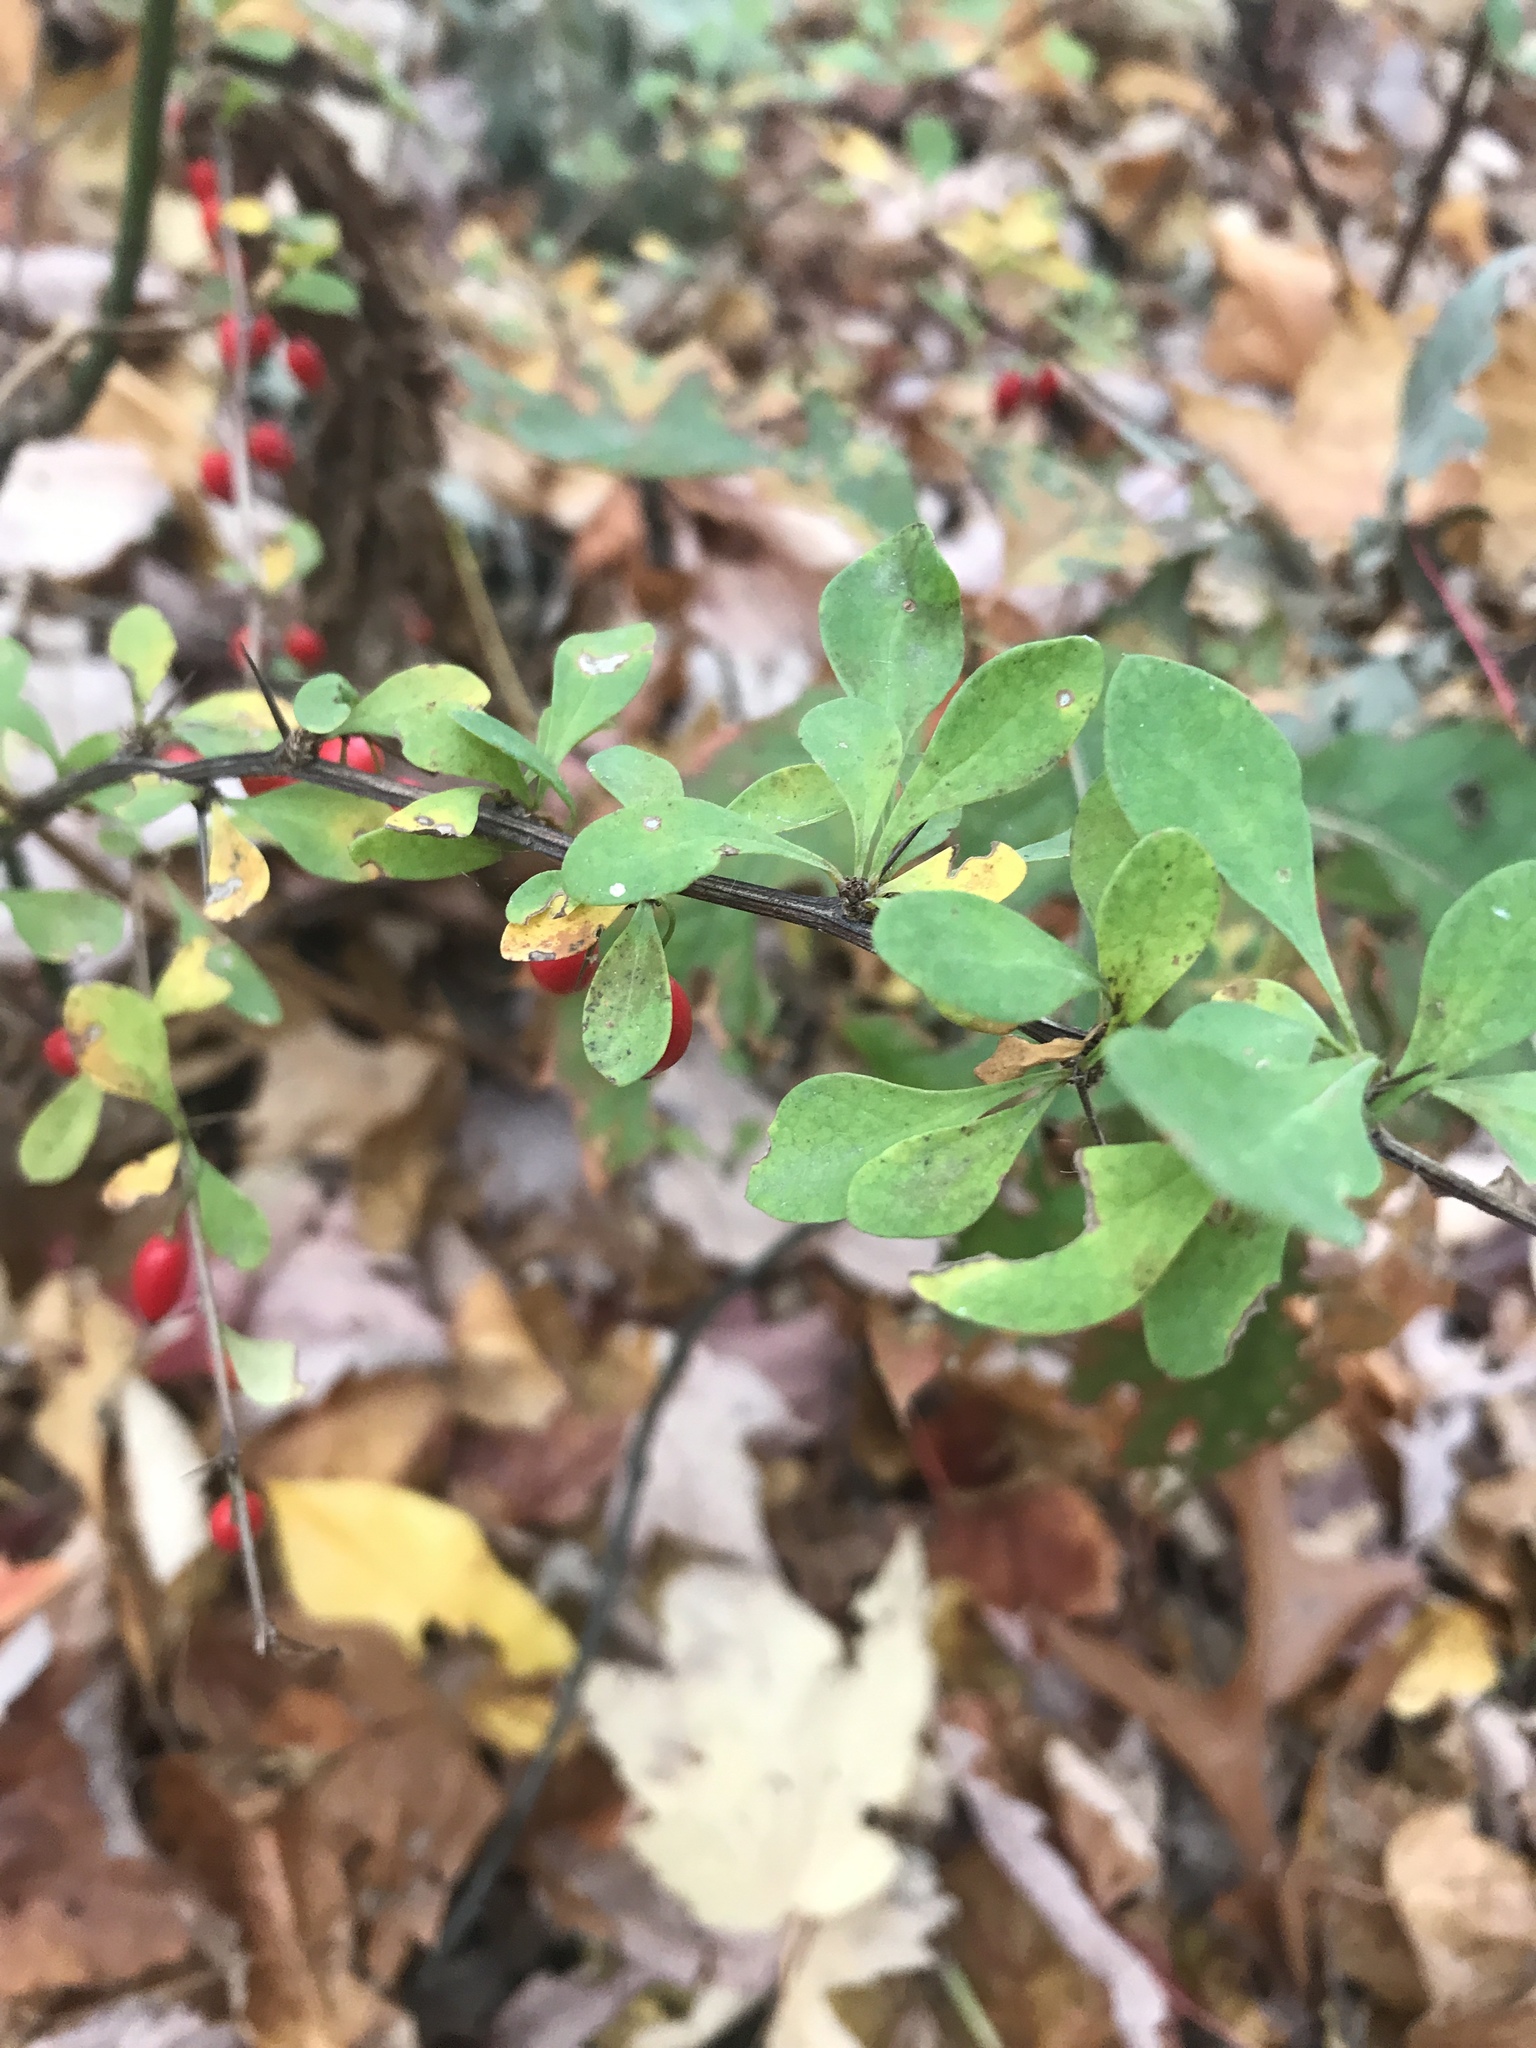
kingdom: Plantae
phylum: Tracheophyta
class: Magnoliopsida
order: Ranunculales
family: Berberidaceae
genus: Berberis
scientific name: Berberis thunbergii
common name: Japanese barberry
